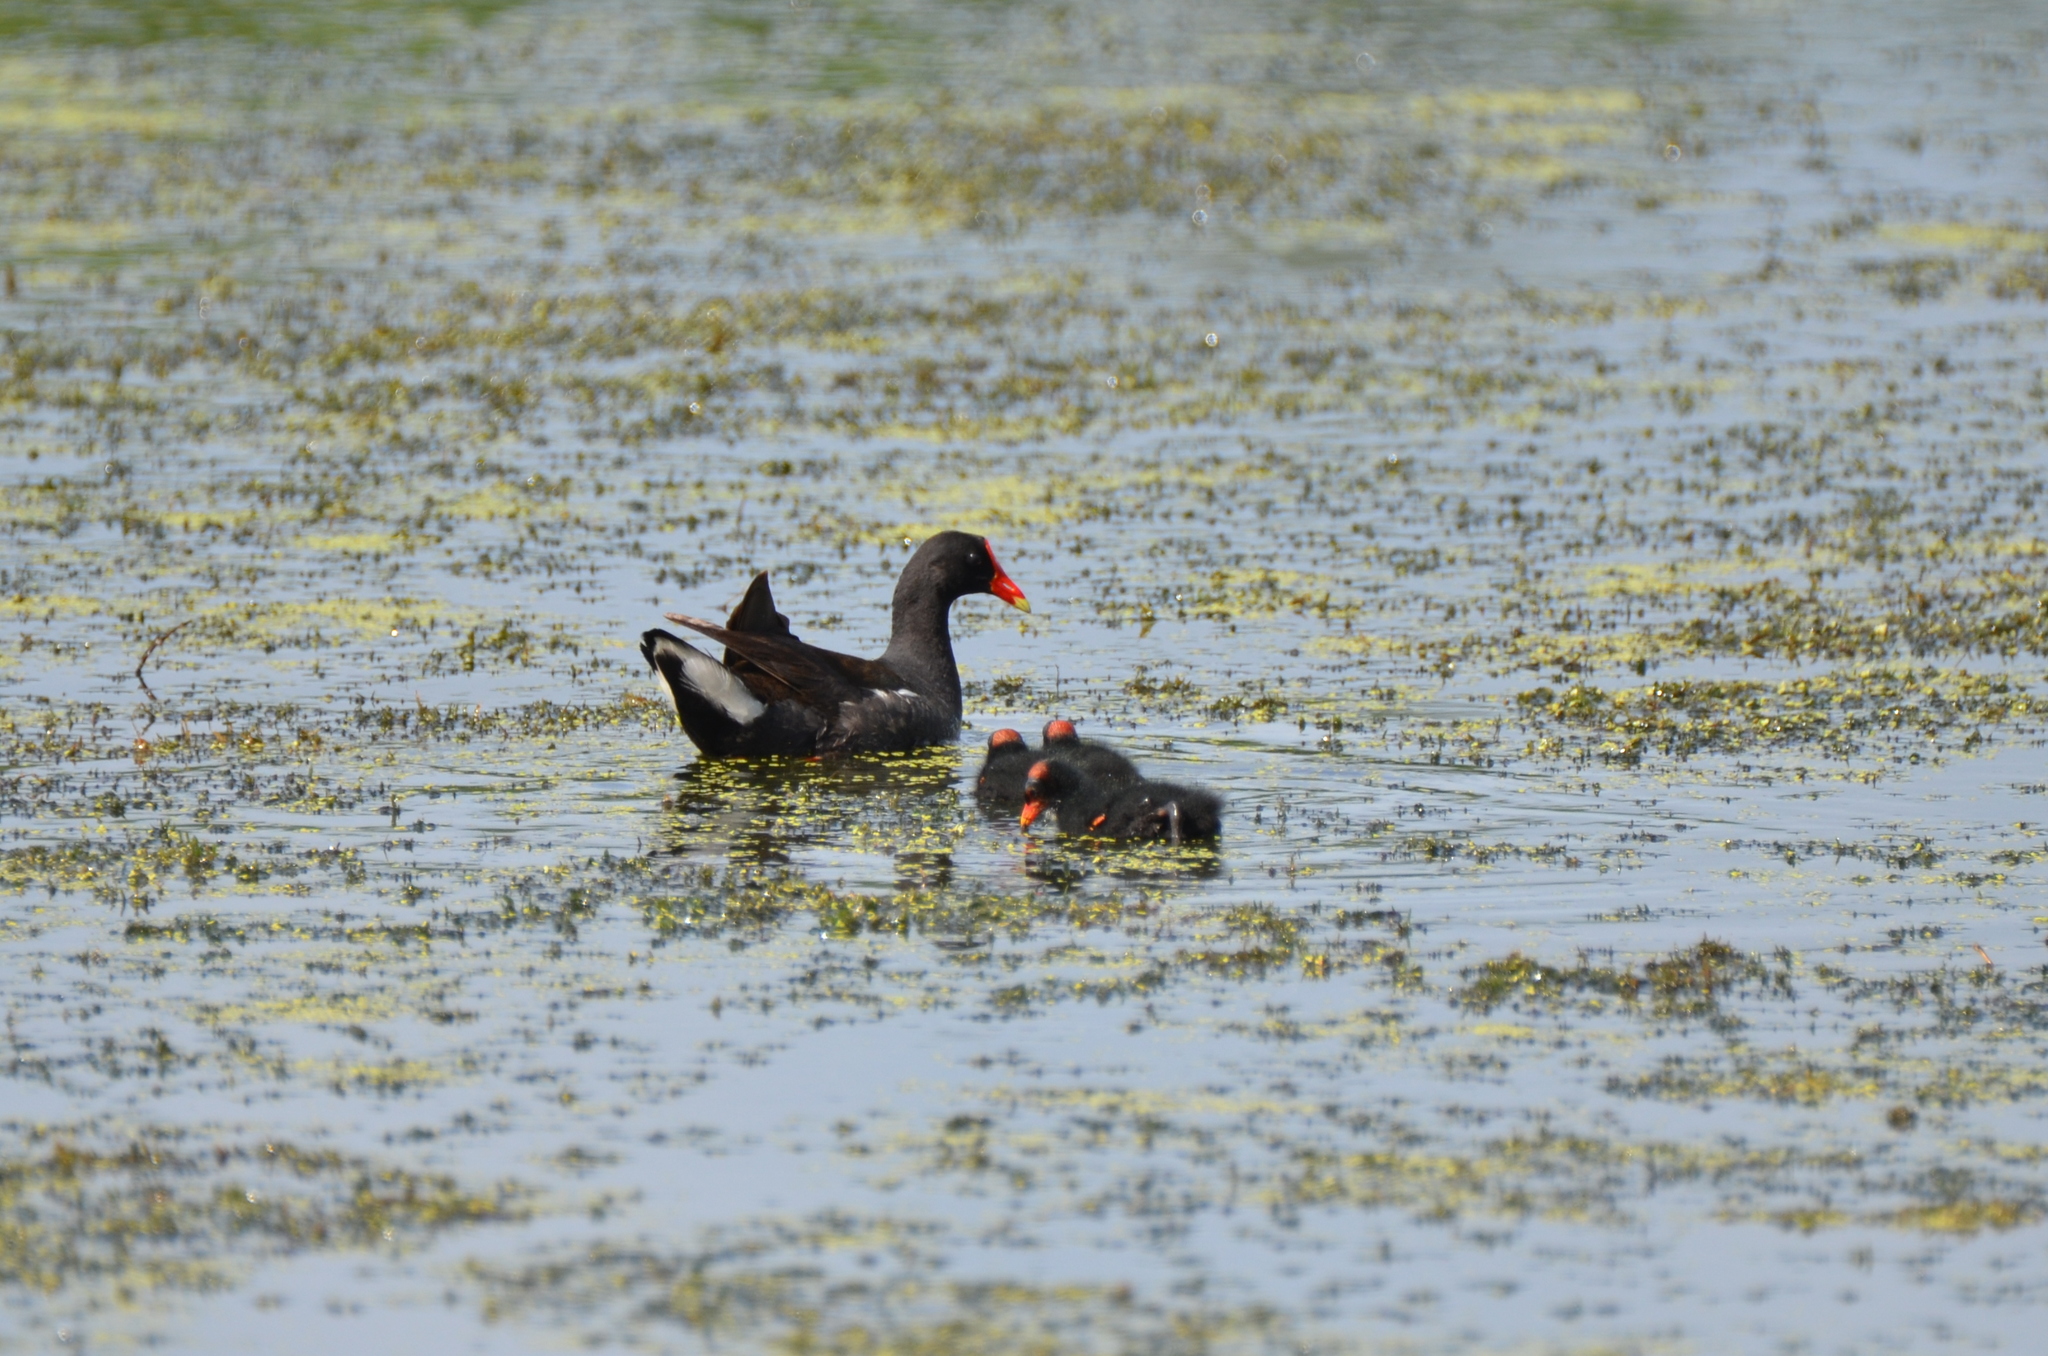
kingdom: Animalia
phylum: Chordata
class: Aves
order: Gruiformes
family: Rallidae
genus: Gallinula
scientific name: Gallinula chloropus
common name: Common moorhen
